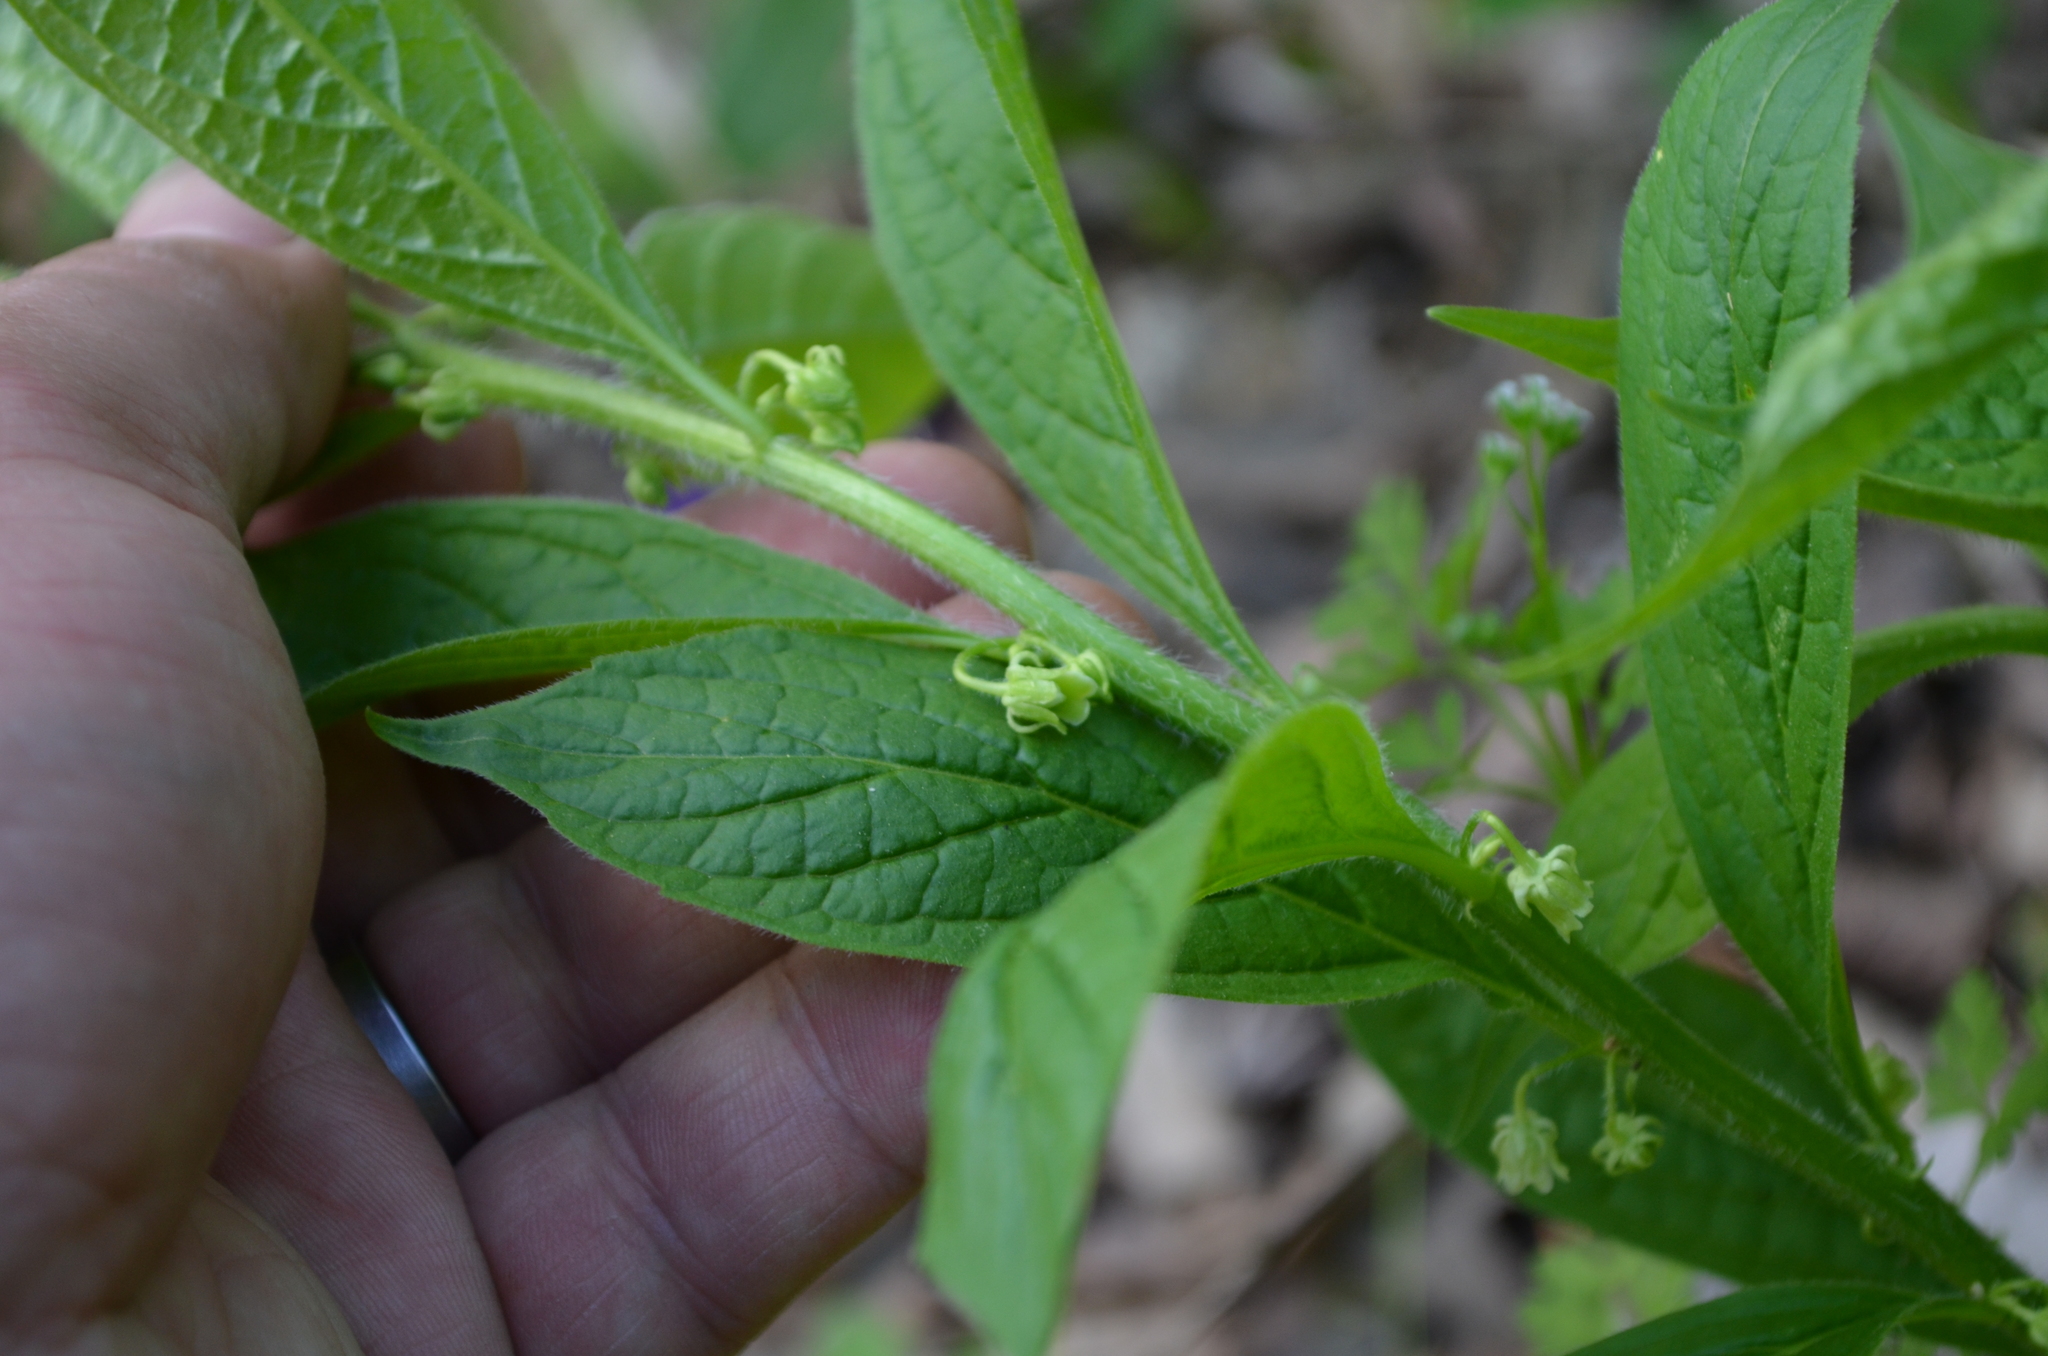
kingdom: Plantae
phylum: Tracheophyta
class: Magnoliopsida
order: Malpighiales
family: Violaceae
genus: Cubelium
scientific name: Cubelium concolor
